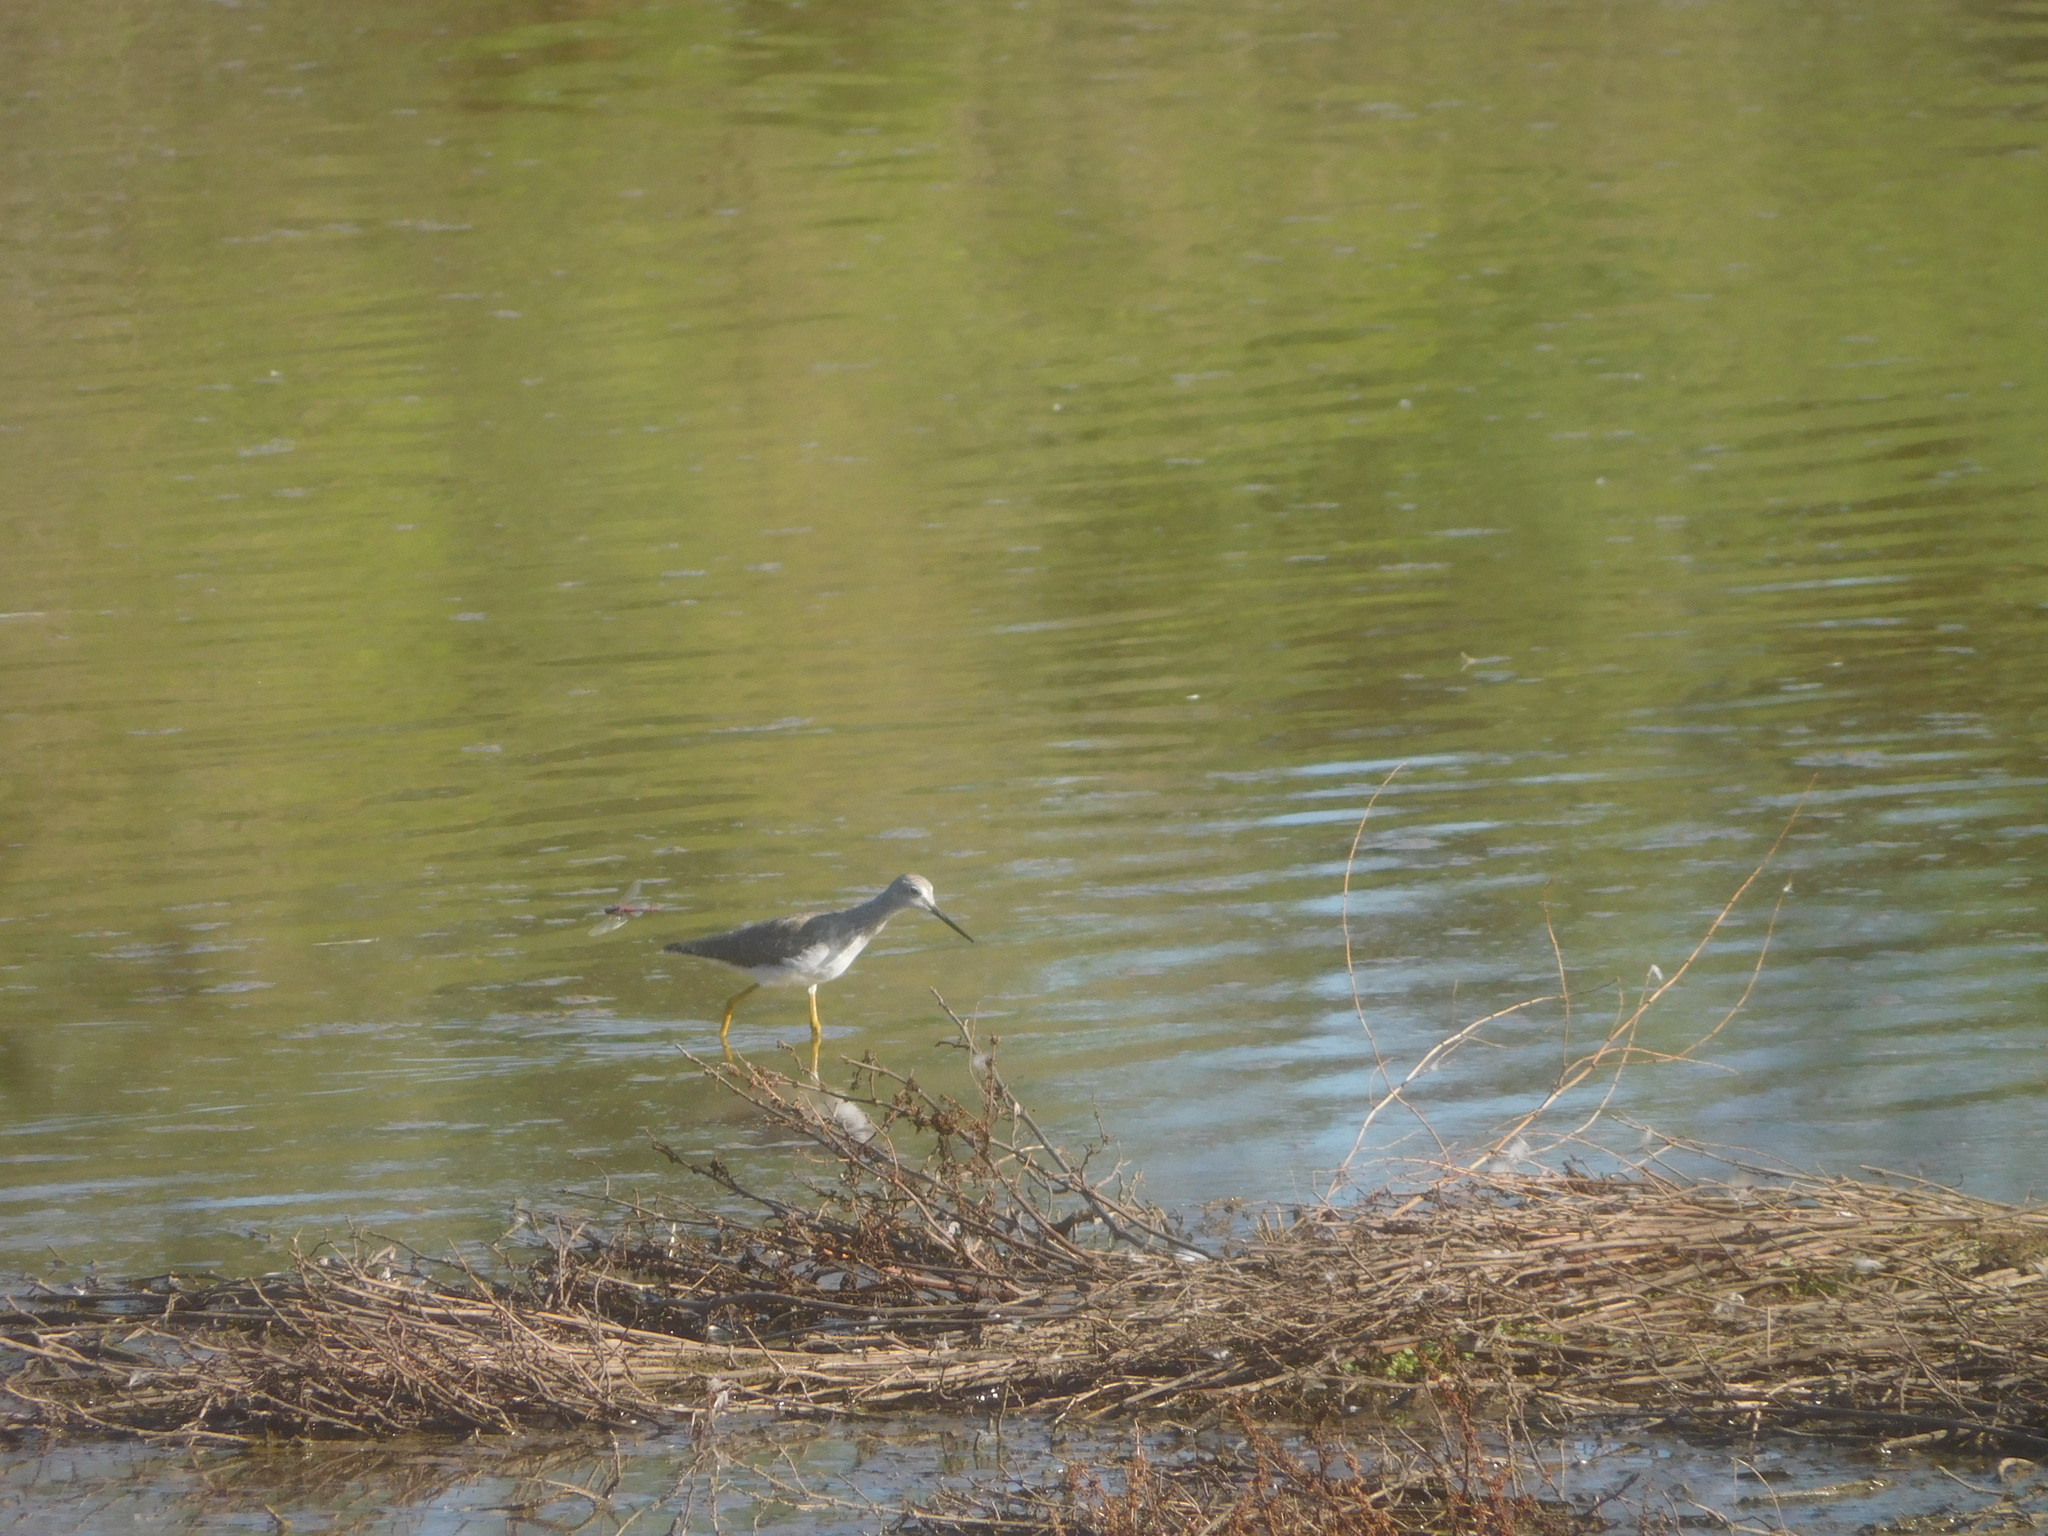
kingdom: Animalia
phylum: Chordata
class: Aves
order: Charadriiformes
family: Scolopacidae
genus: Tringa
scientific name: Tringa melanoleuca
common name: Greater yellowlegs
